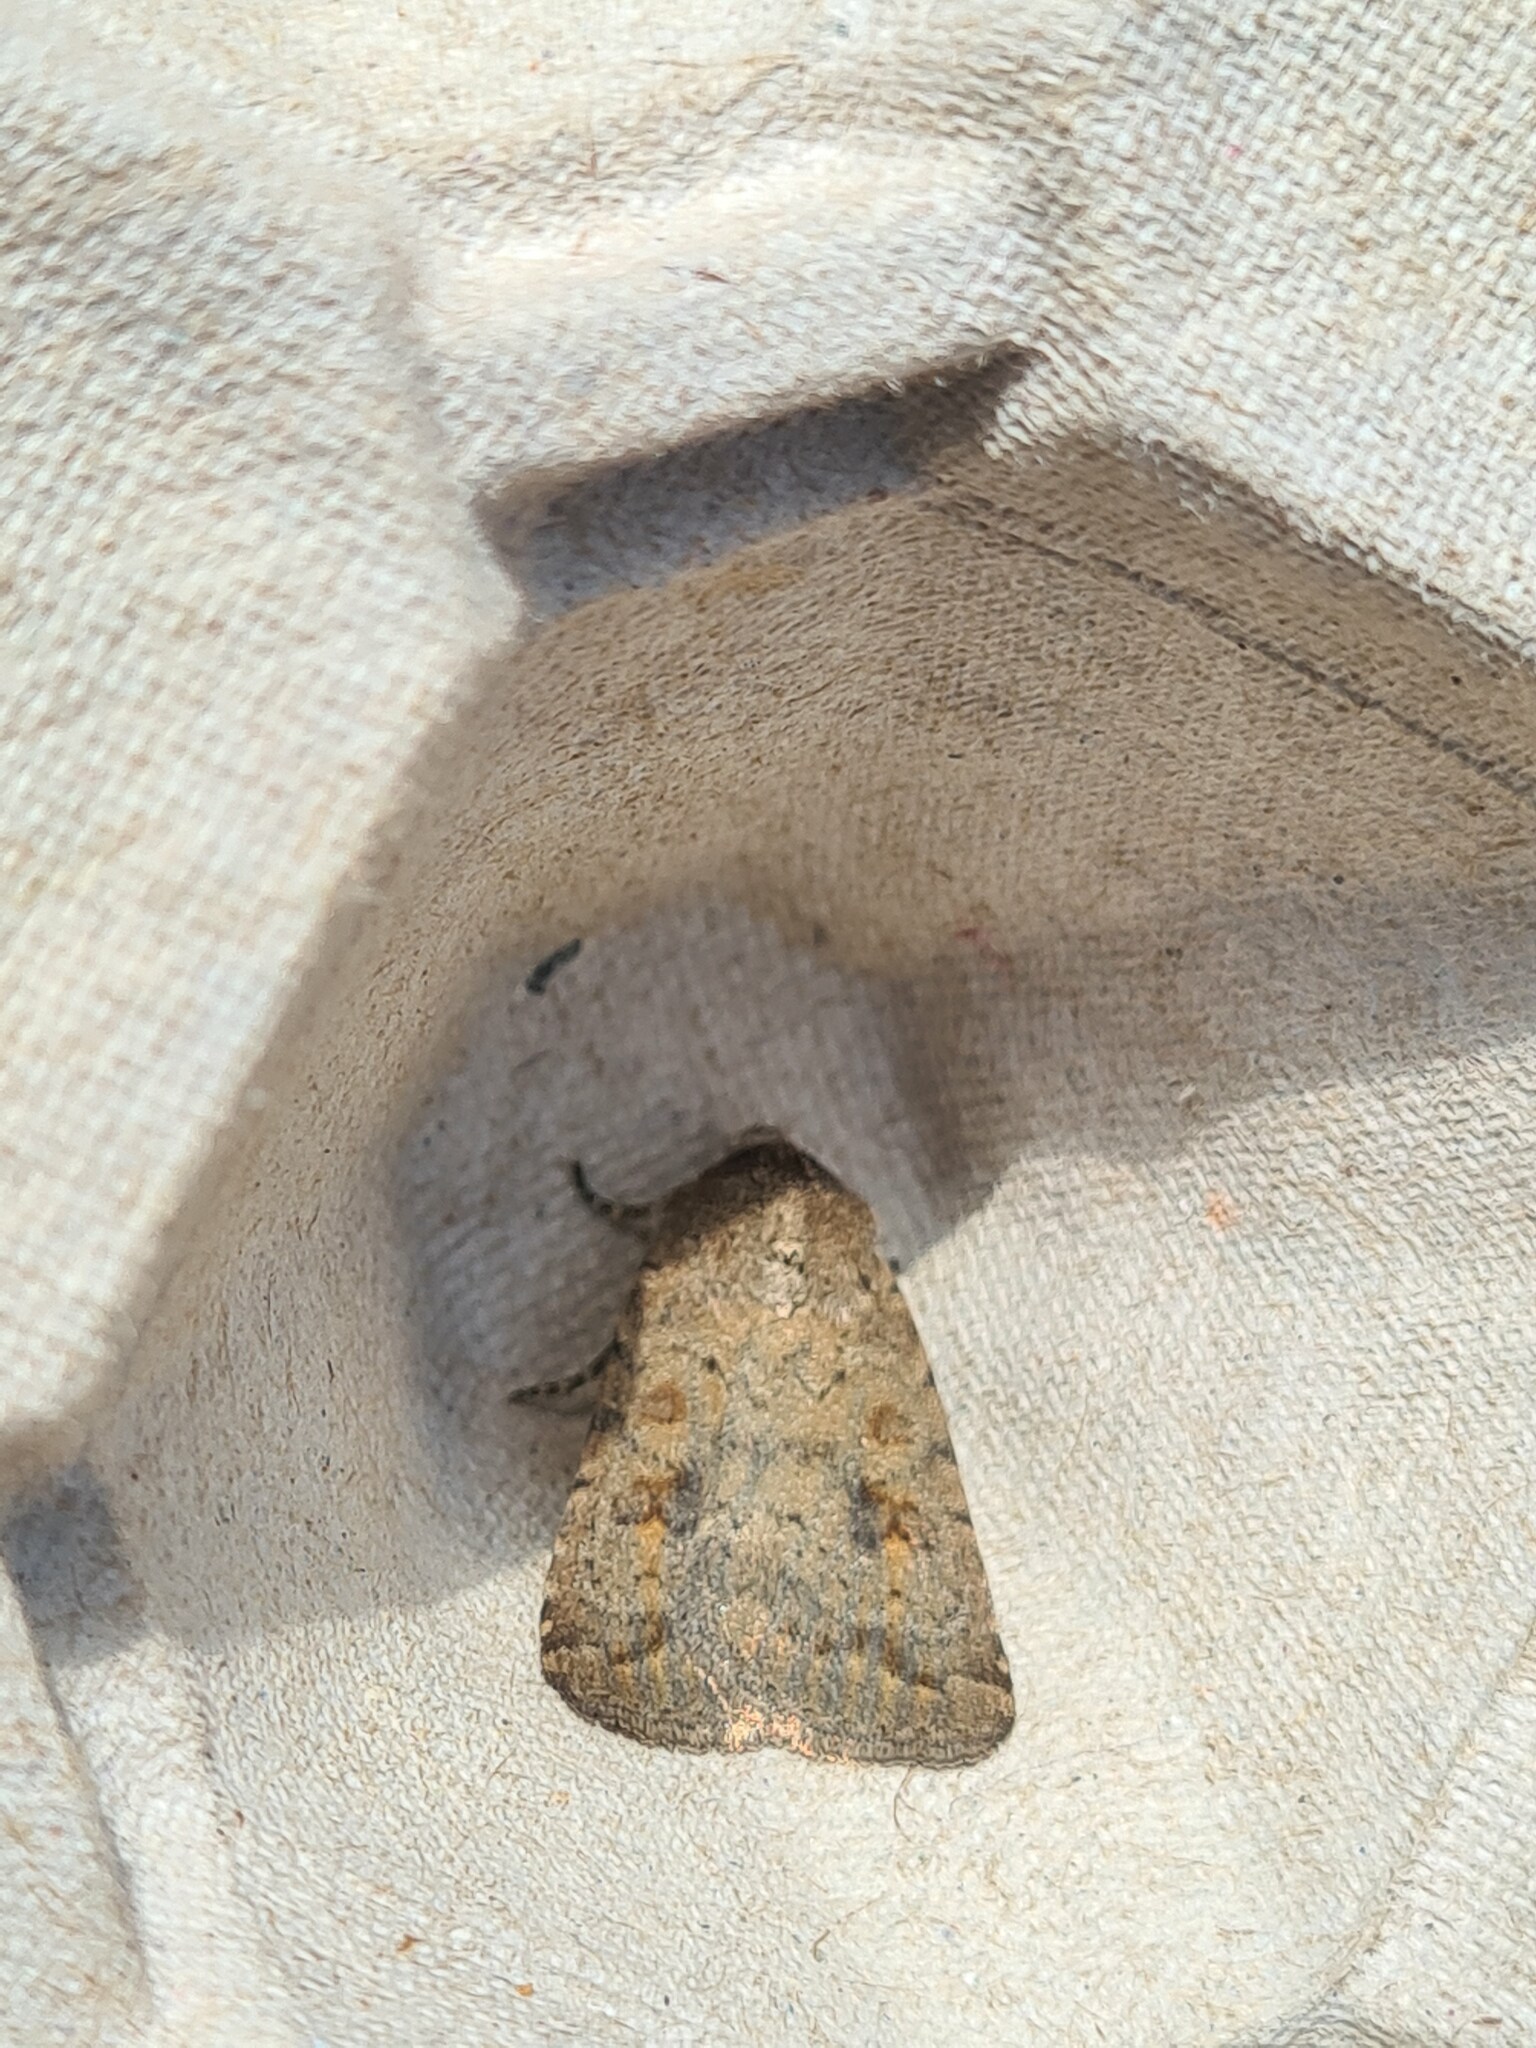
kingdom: Animalia
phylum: Arthropoda
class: Insecta
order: Lepidoptera
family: Noctuidae
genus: Caradrina
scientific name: Caradrina morpheus
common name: Mottled rustic
